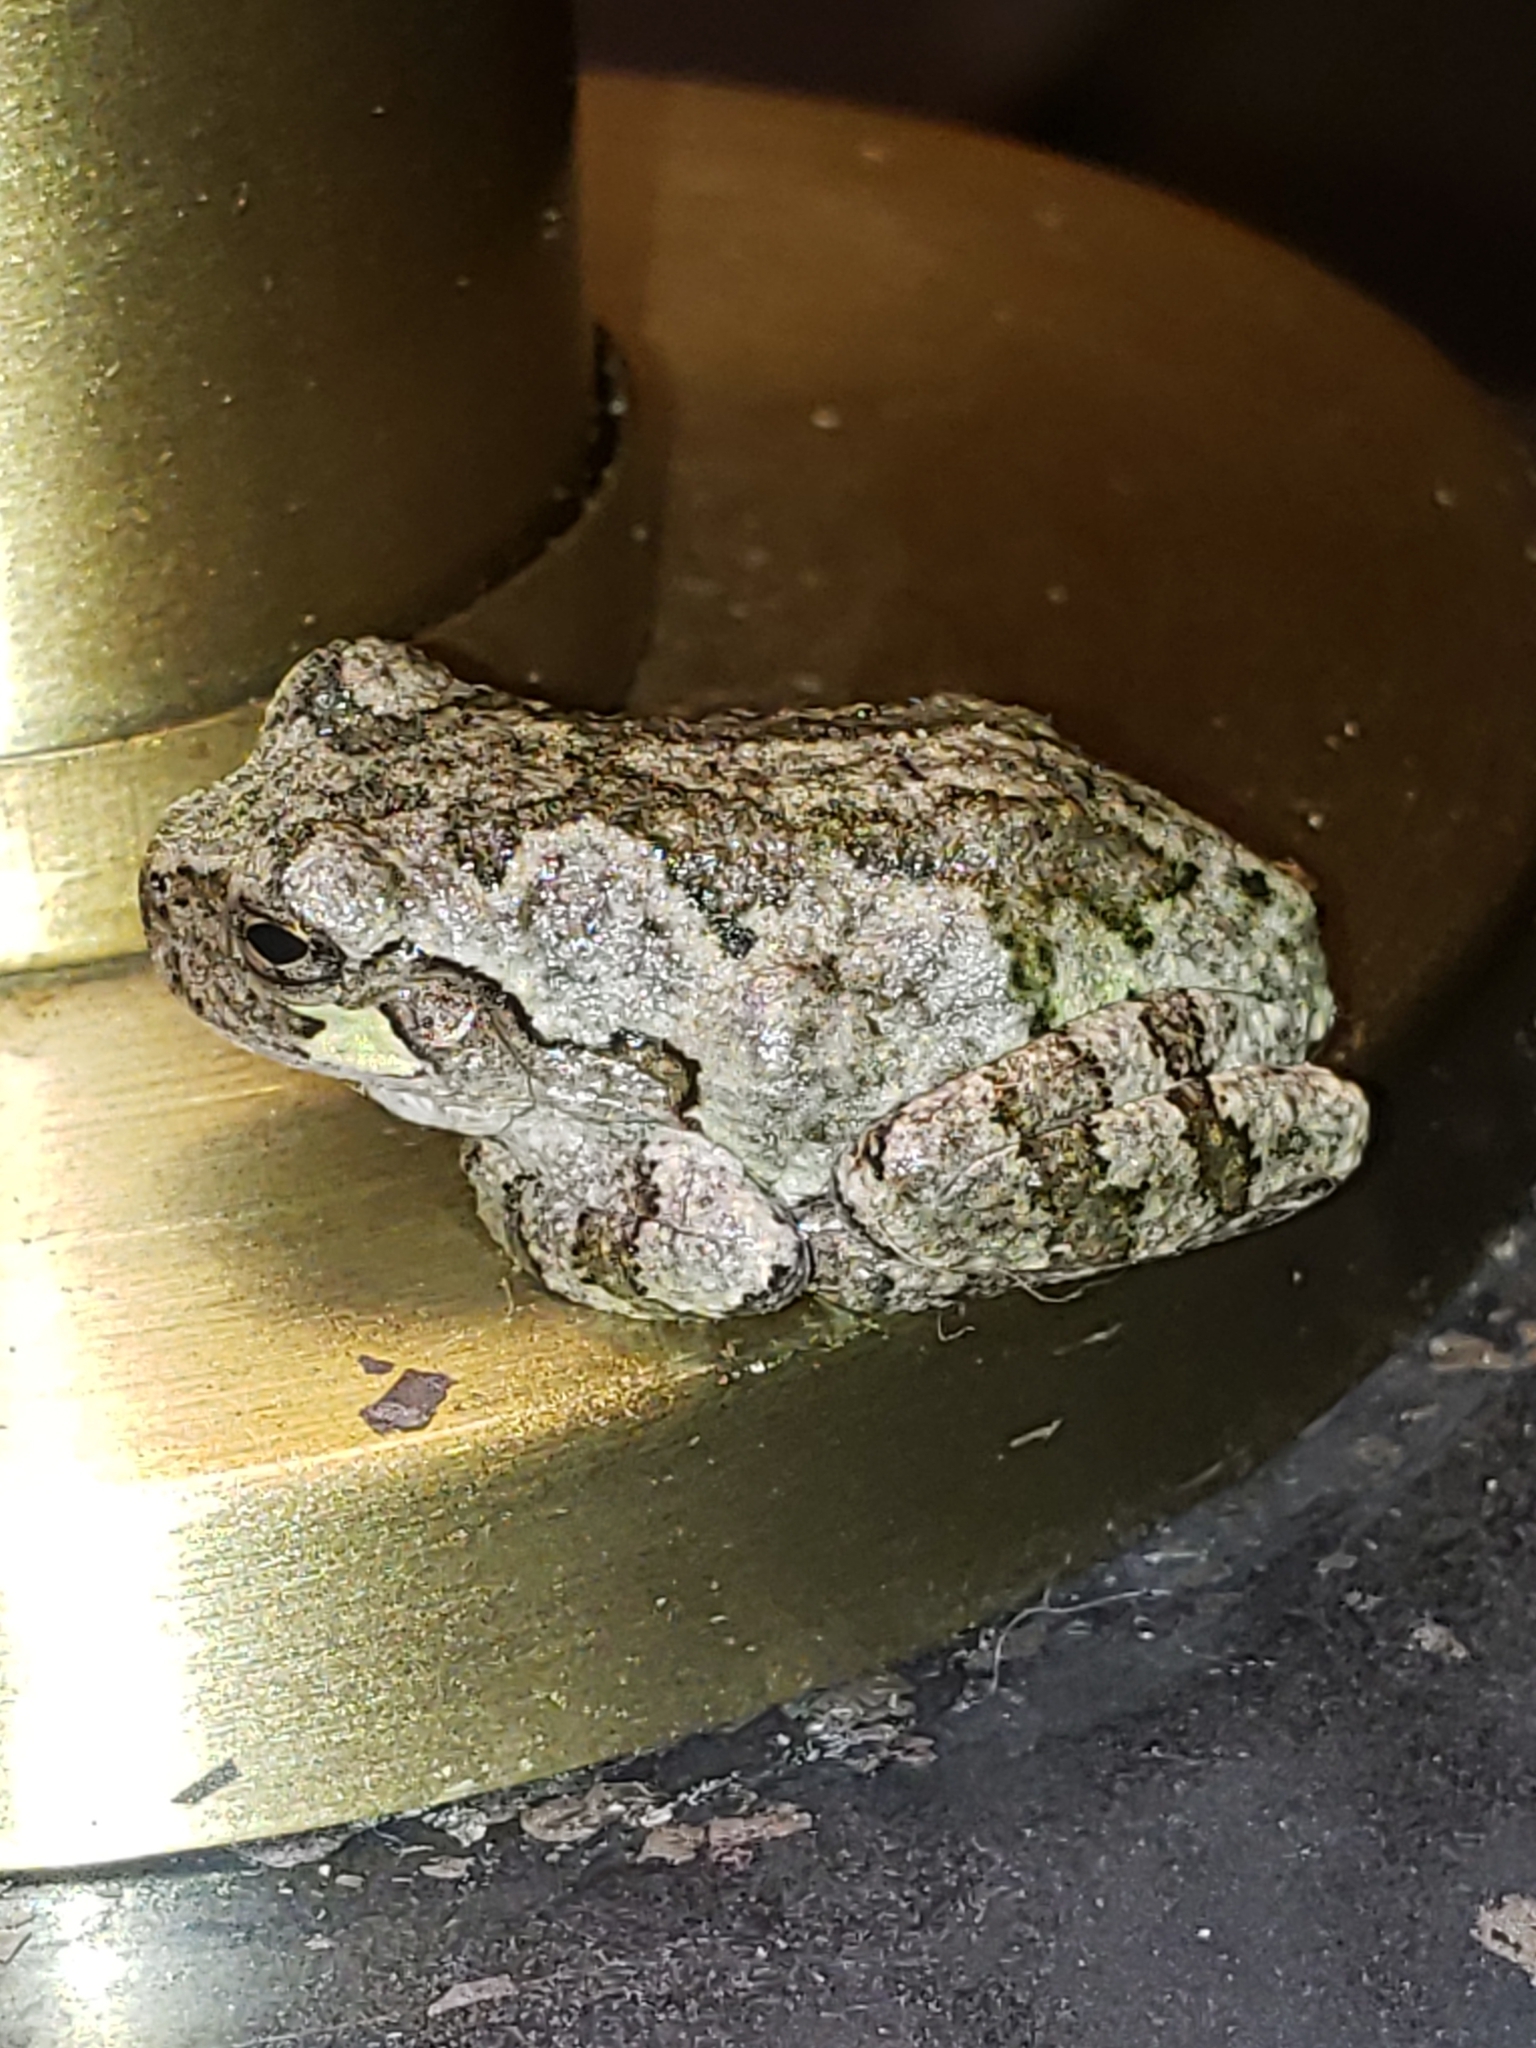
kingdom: Animalia
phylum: Chordata
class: Amphibia
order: Anura
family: Hylidae
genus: Hyla
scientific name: Hyla
